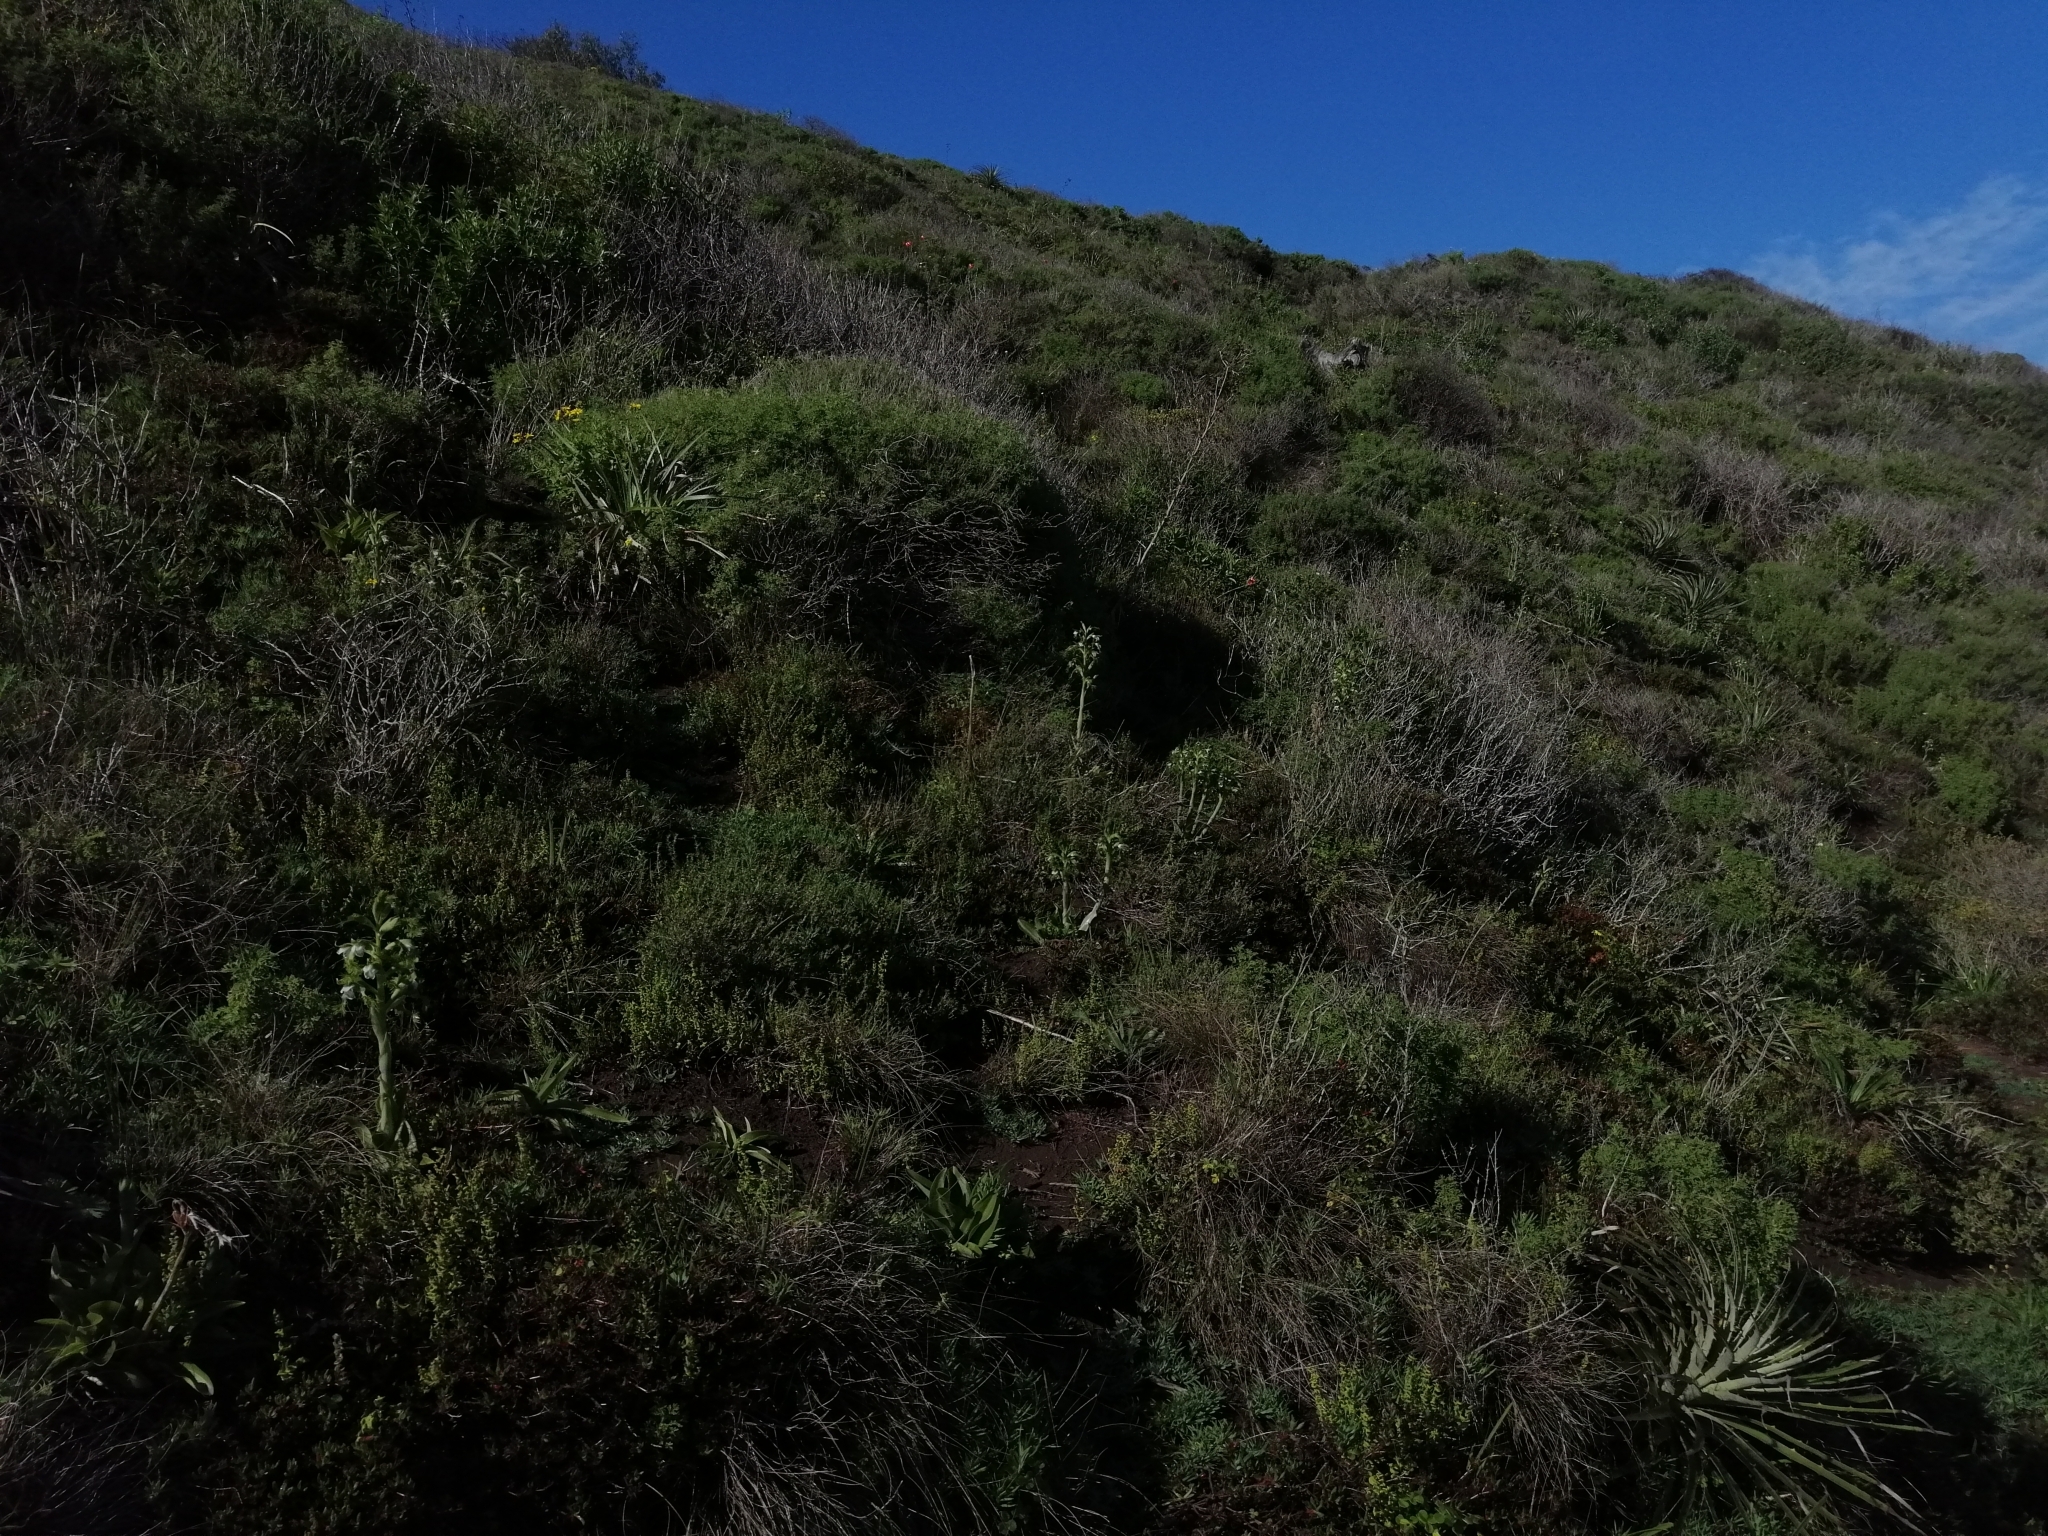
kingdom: Plantae
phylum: Tracheophyta
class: Liliopsida
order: Asparagales
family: Orchidaceae
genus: Bipinnula
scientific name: Bipinnula fimbriata
